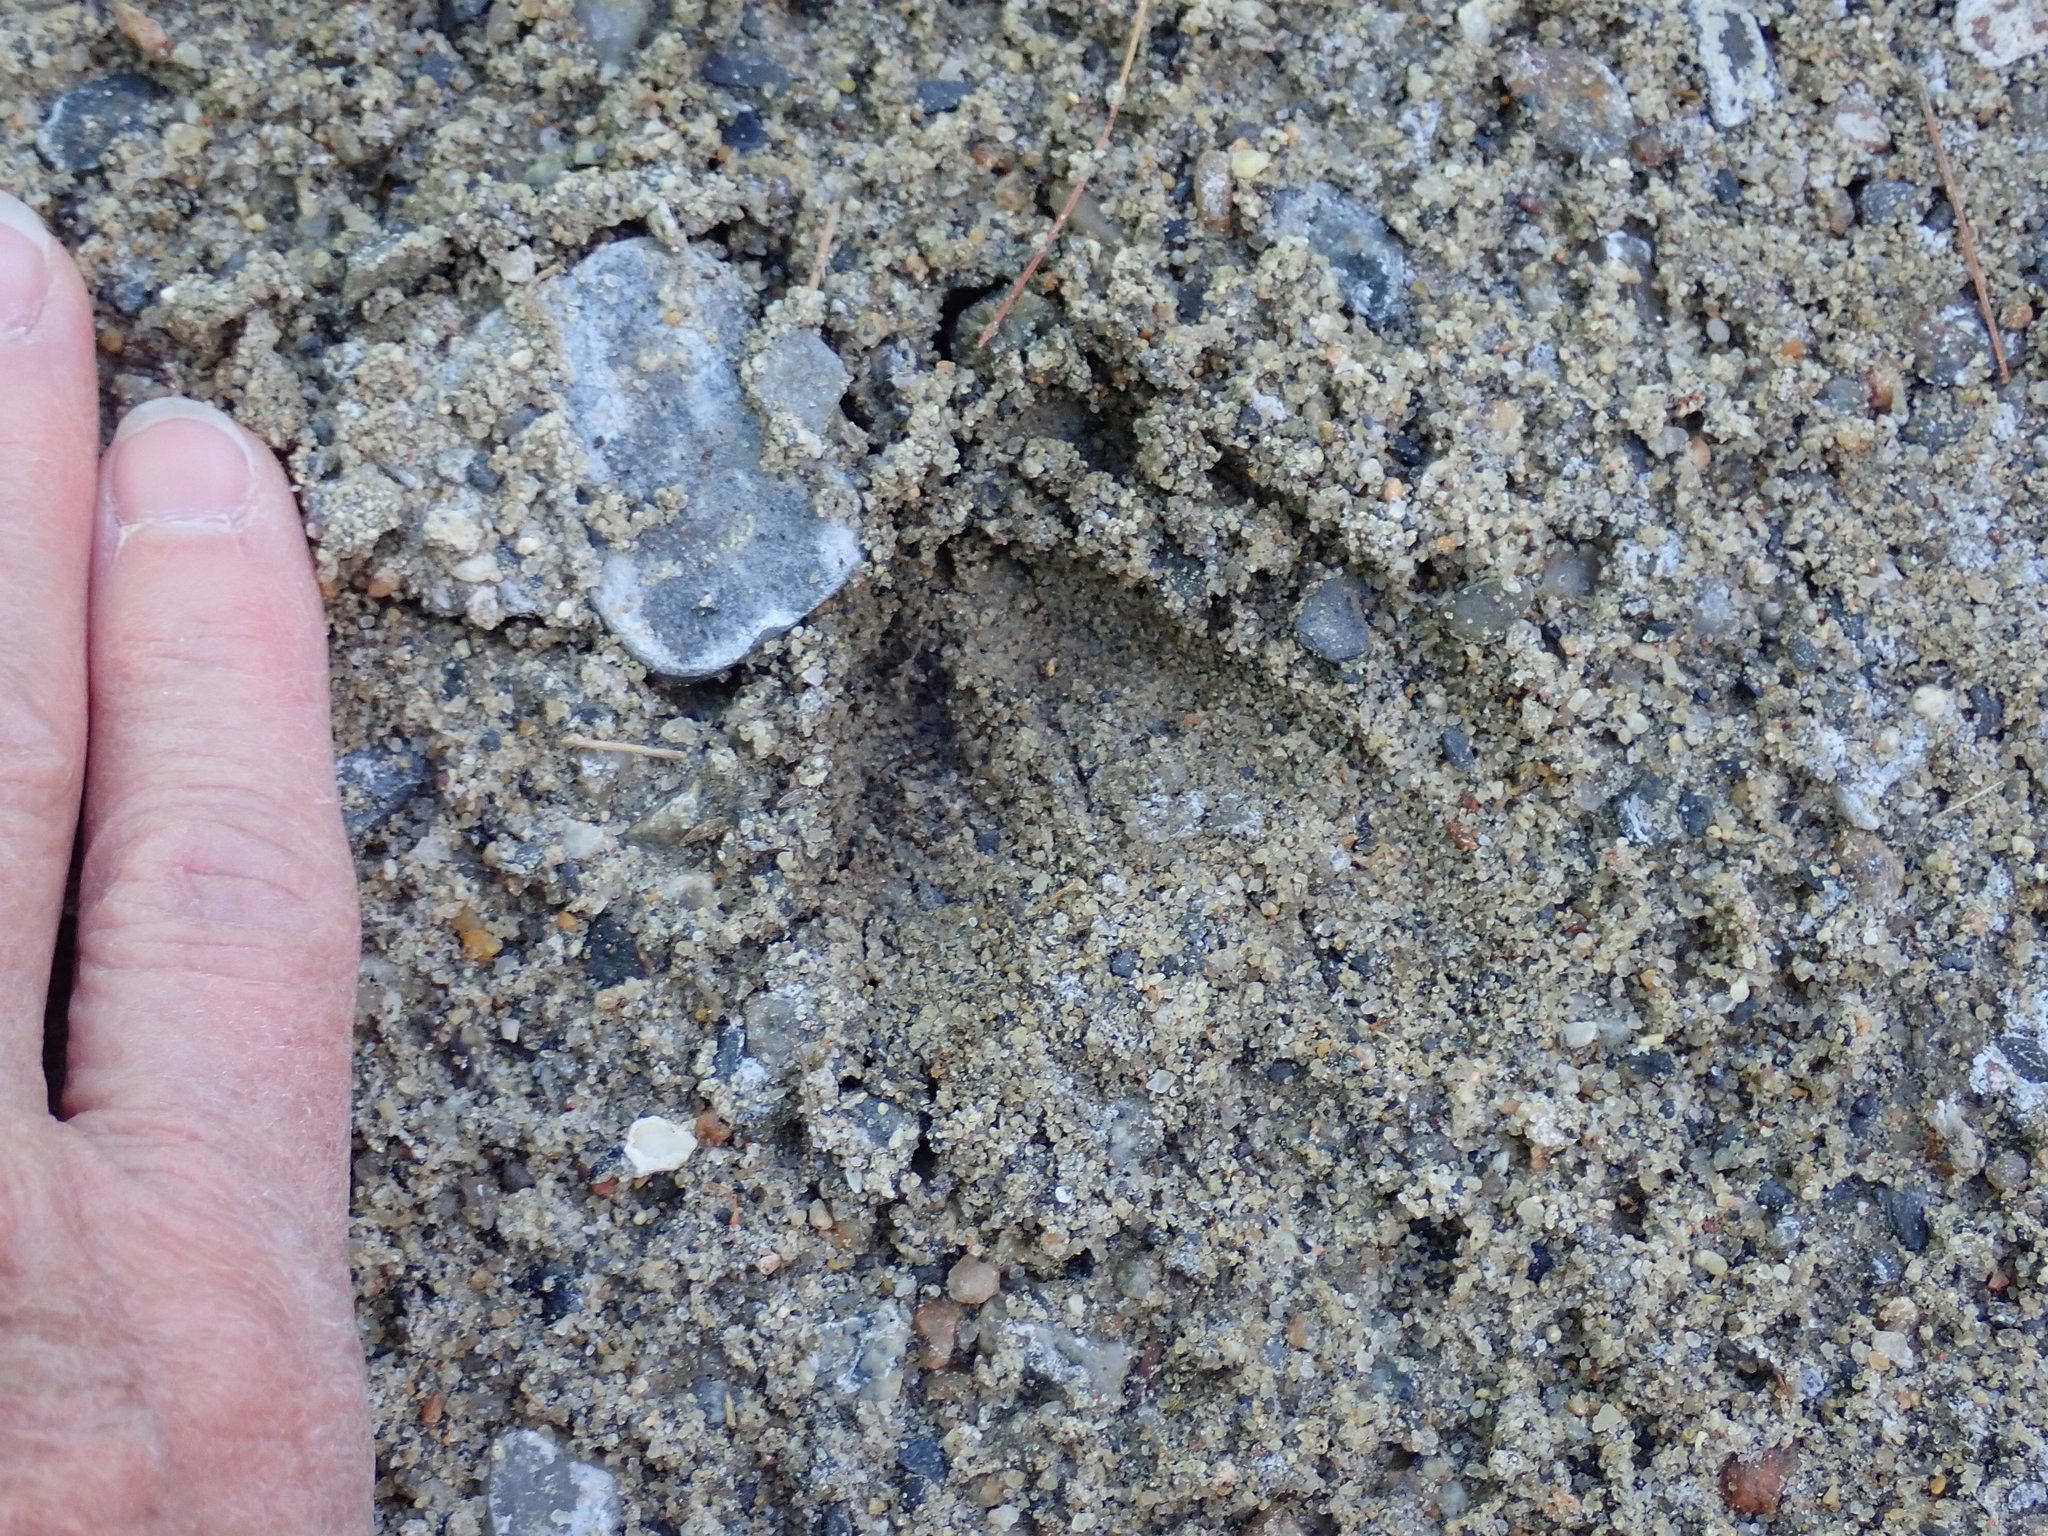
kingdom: Animalia
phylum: Chordata
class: Mammalia
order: Artiodactyla
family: Cervidae
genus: Odocoileus
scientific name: Odocoileus virginianus
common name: White-tailed deer
